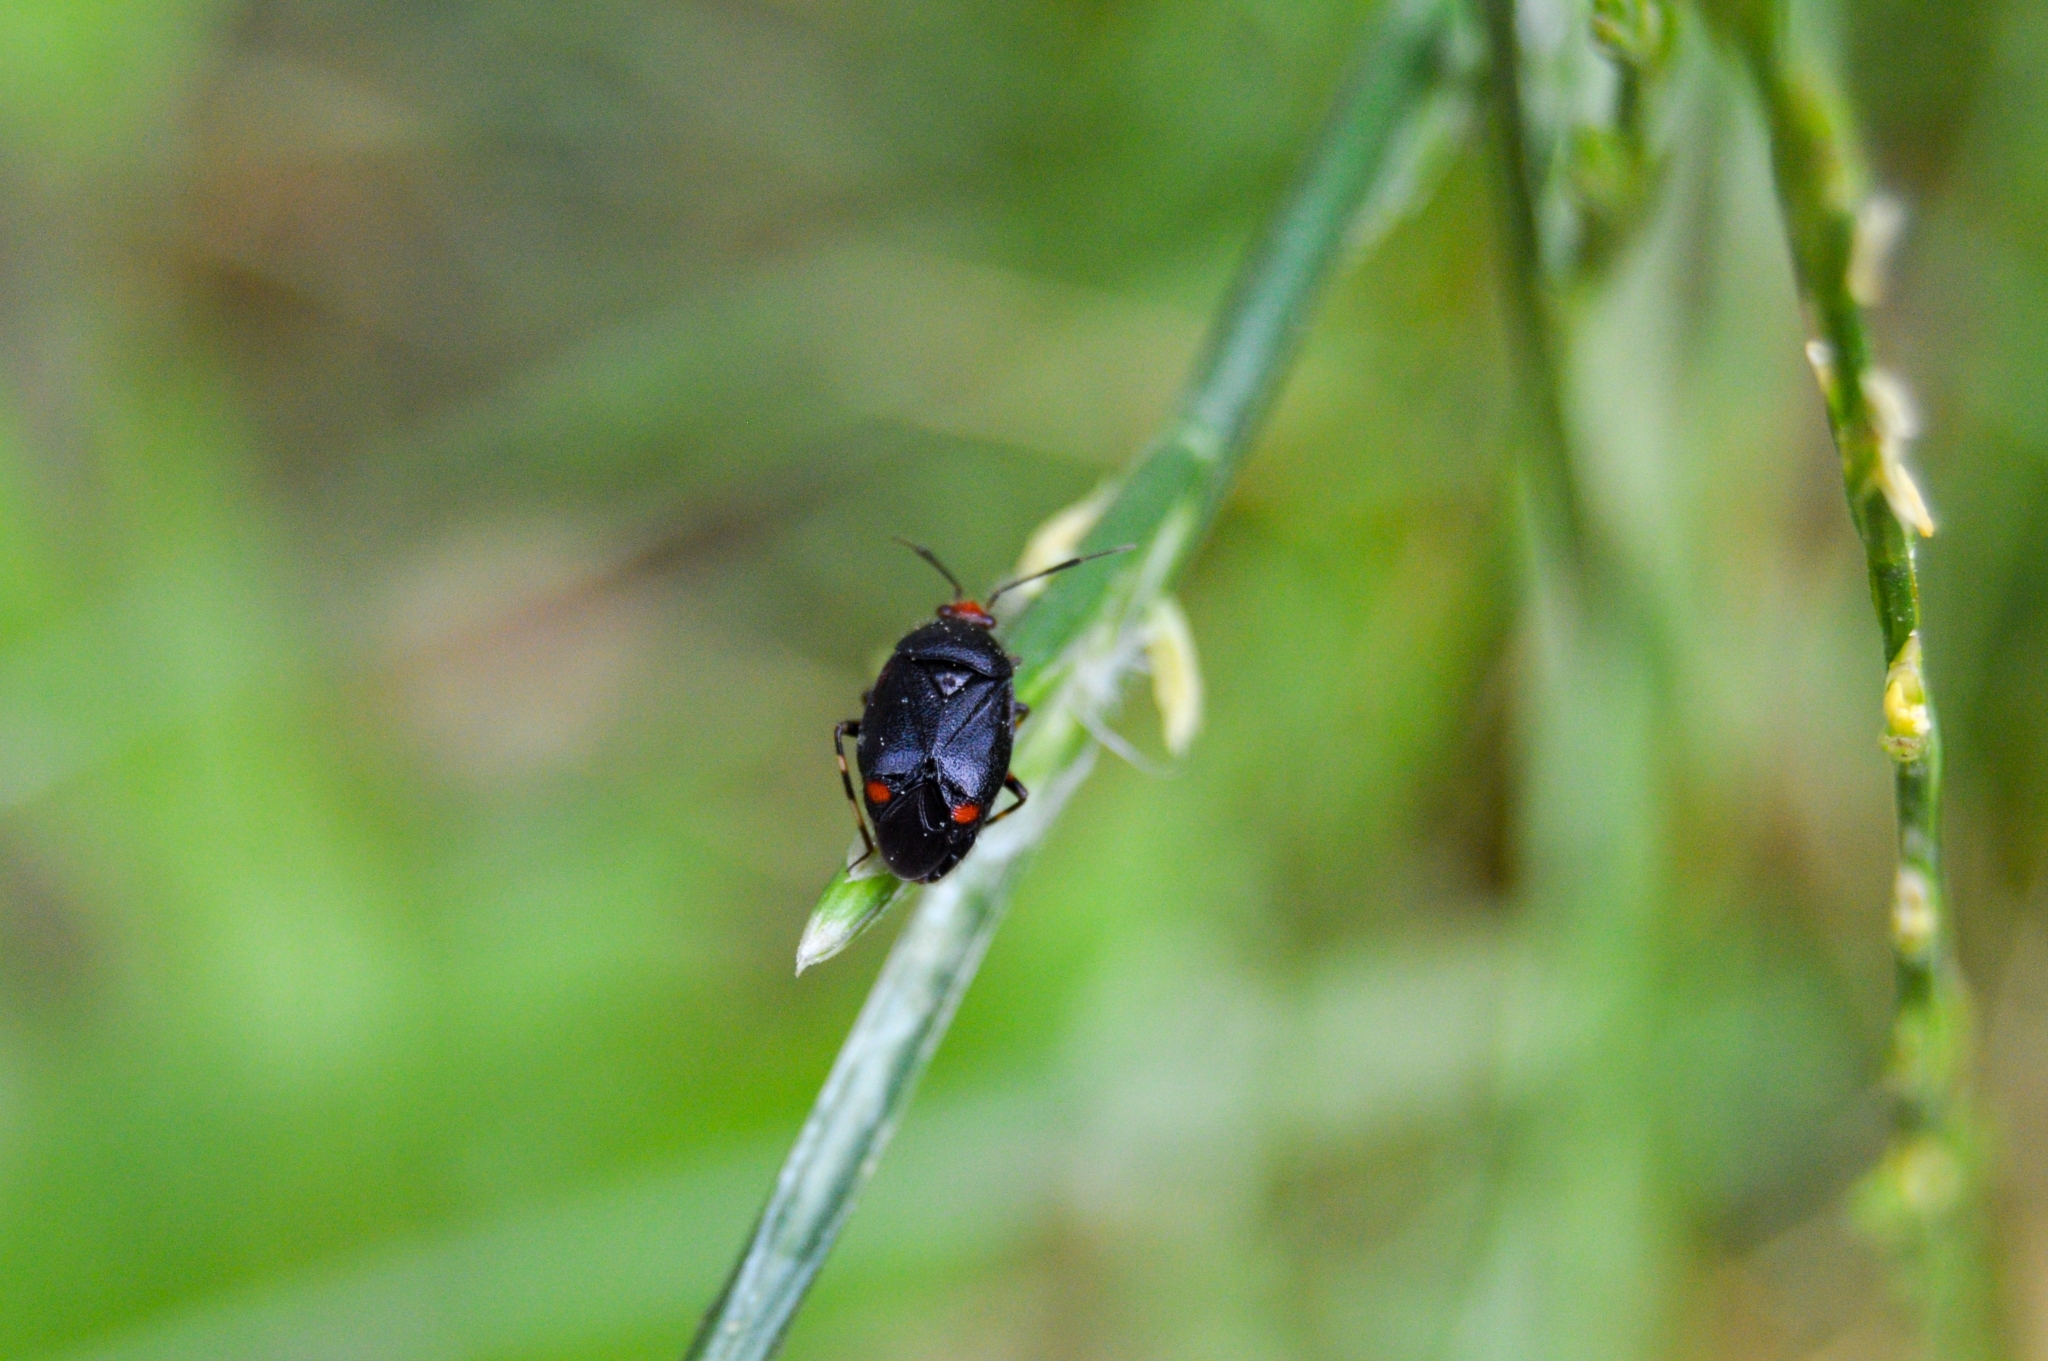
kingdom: Animalia
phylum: Arthropoda
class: Insecta
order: Hemiptera
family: Miridae
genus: Deraeocoris
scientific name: Deraeocoris schach
